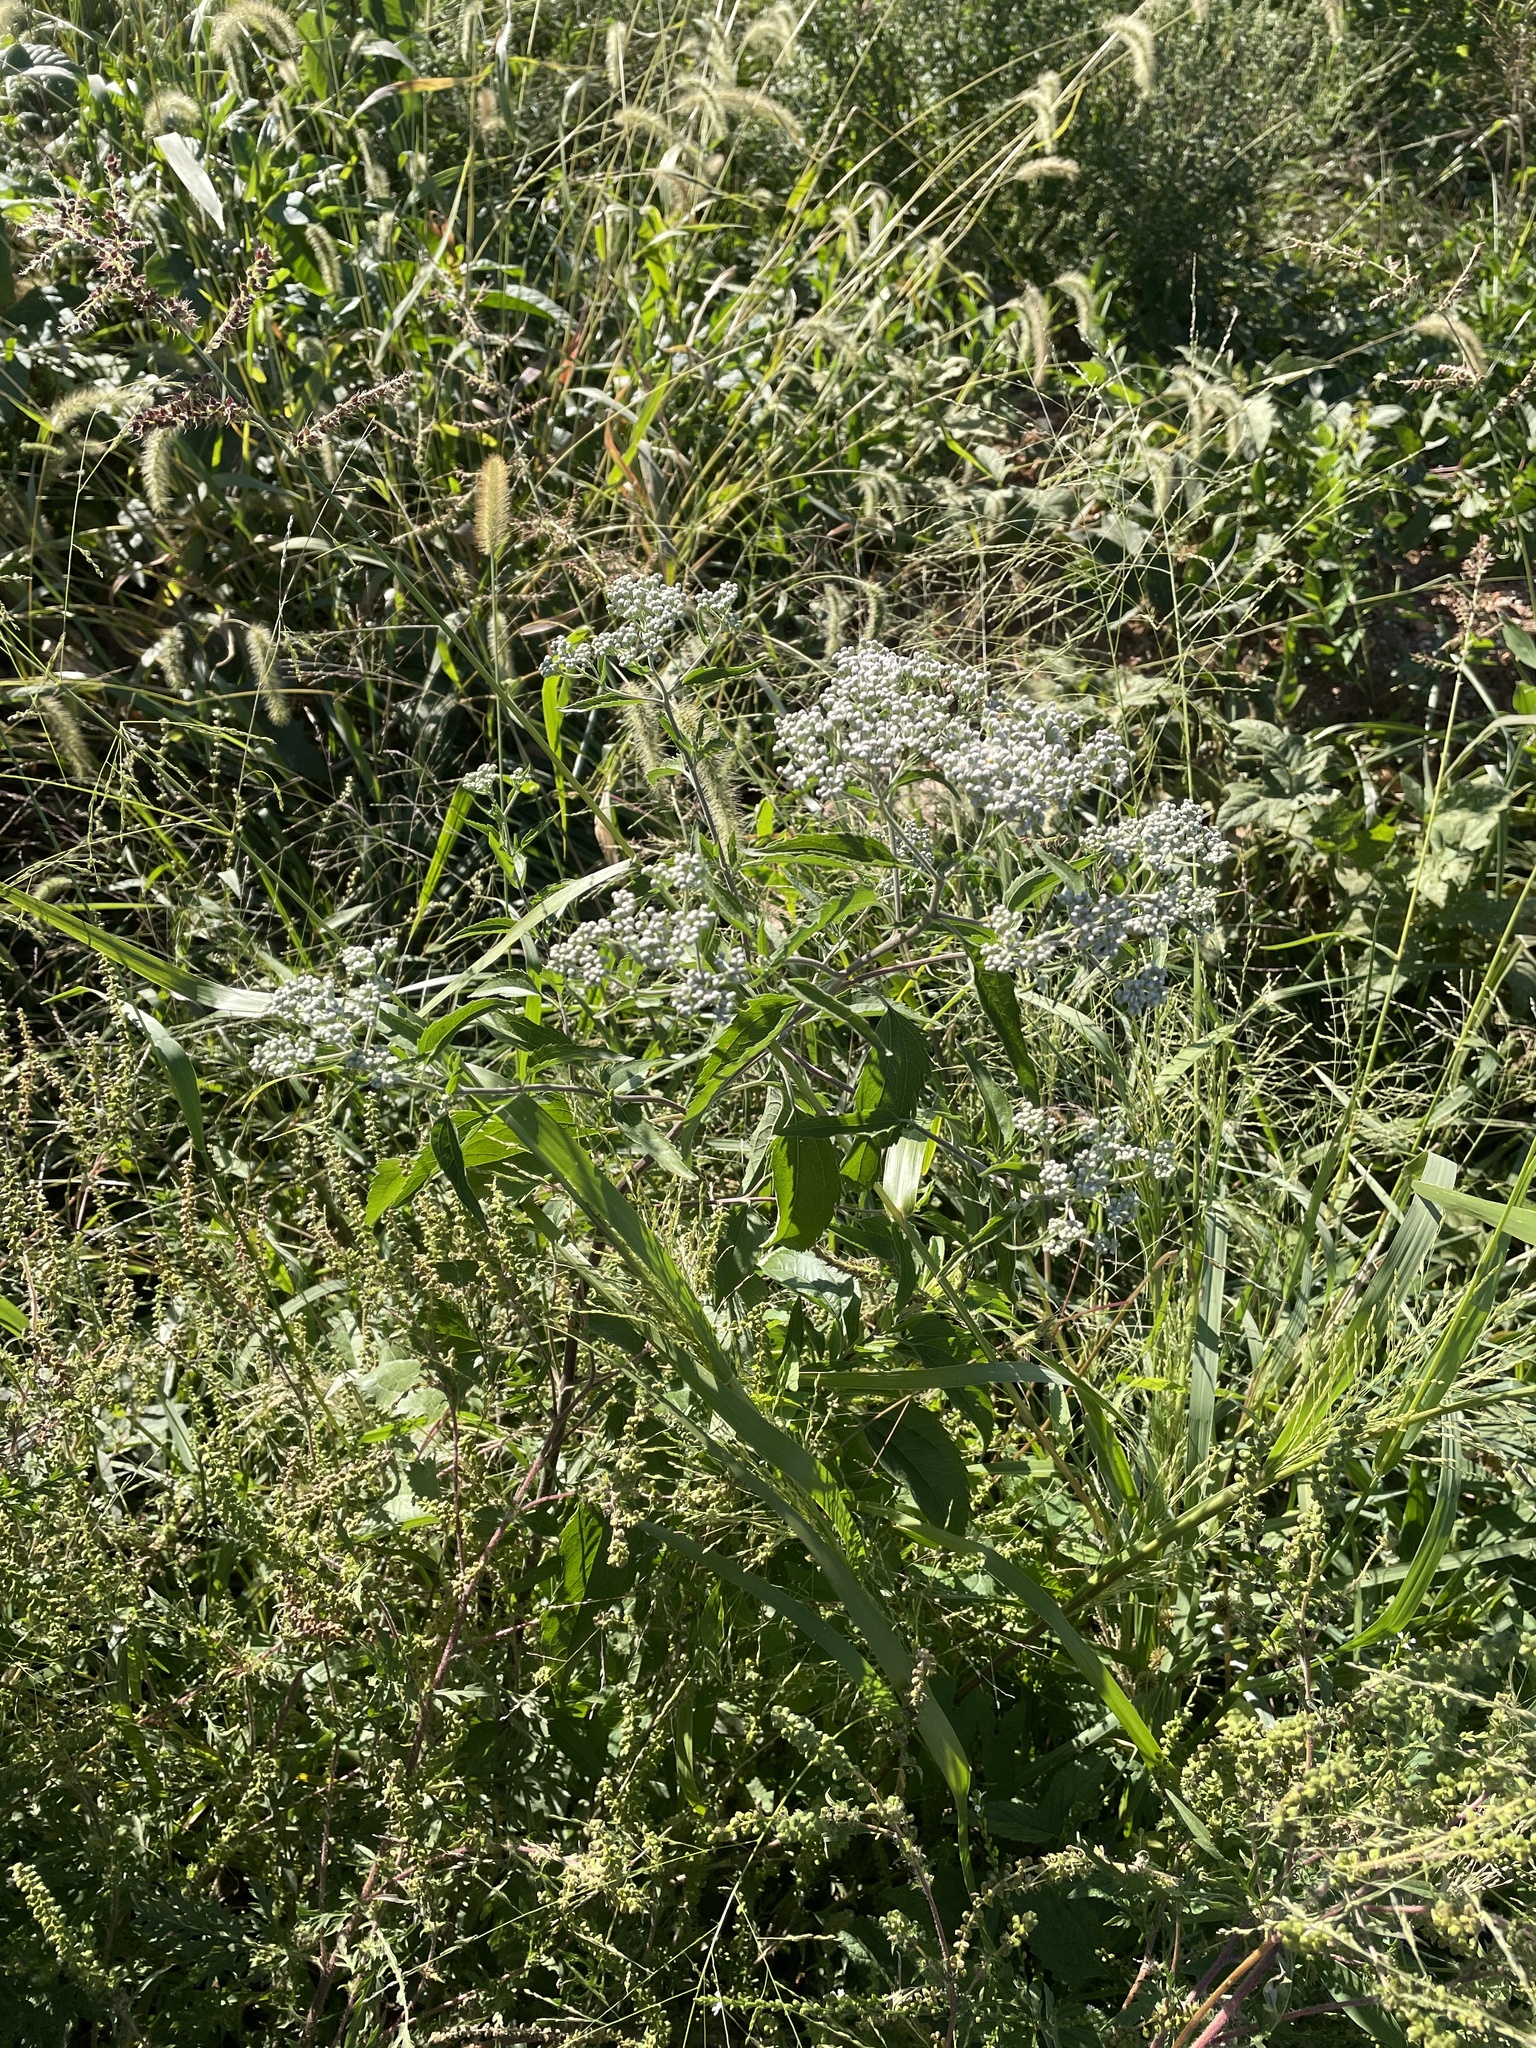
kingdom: Plantae
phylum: Tracheophyta
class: Magnoliopsida
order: Asterales
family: Asteraceae
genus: Eupatorium
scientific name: Eupatorium serotinum
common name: Late boneset
